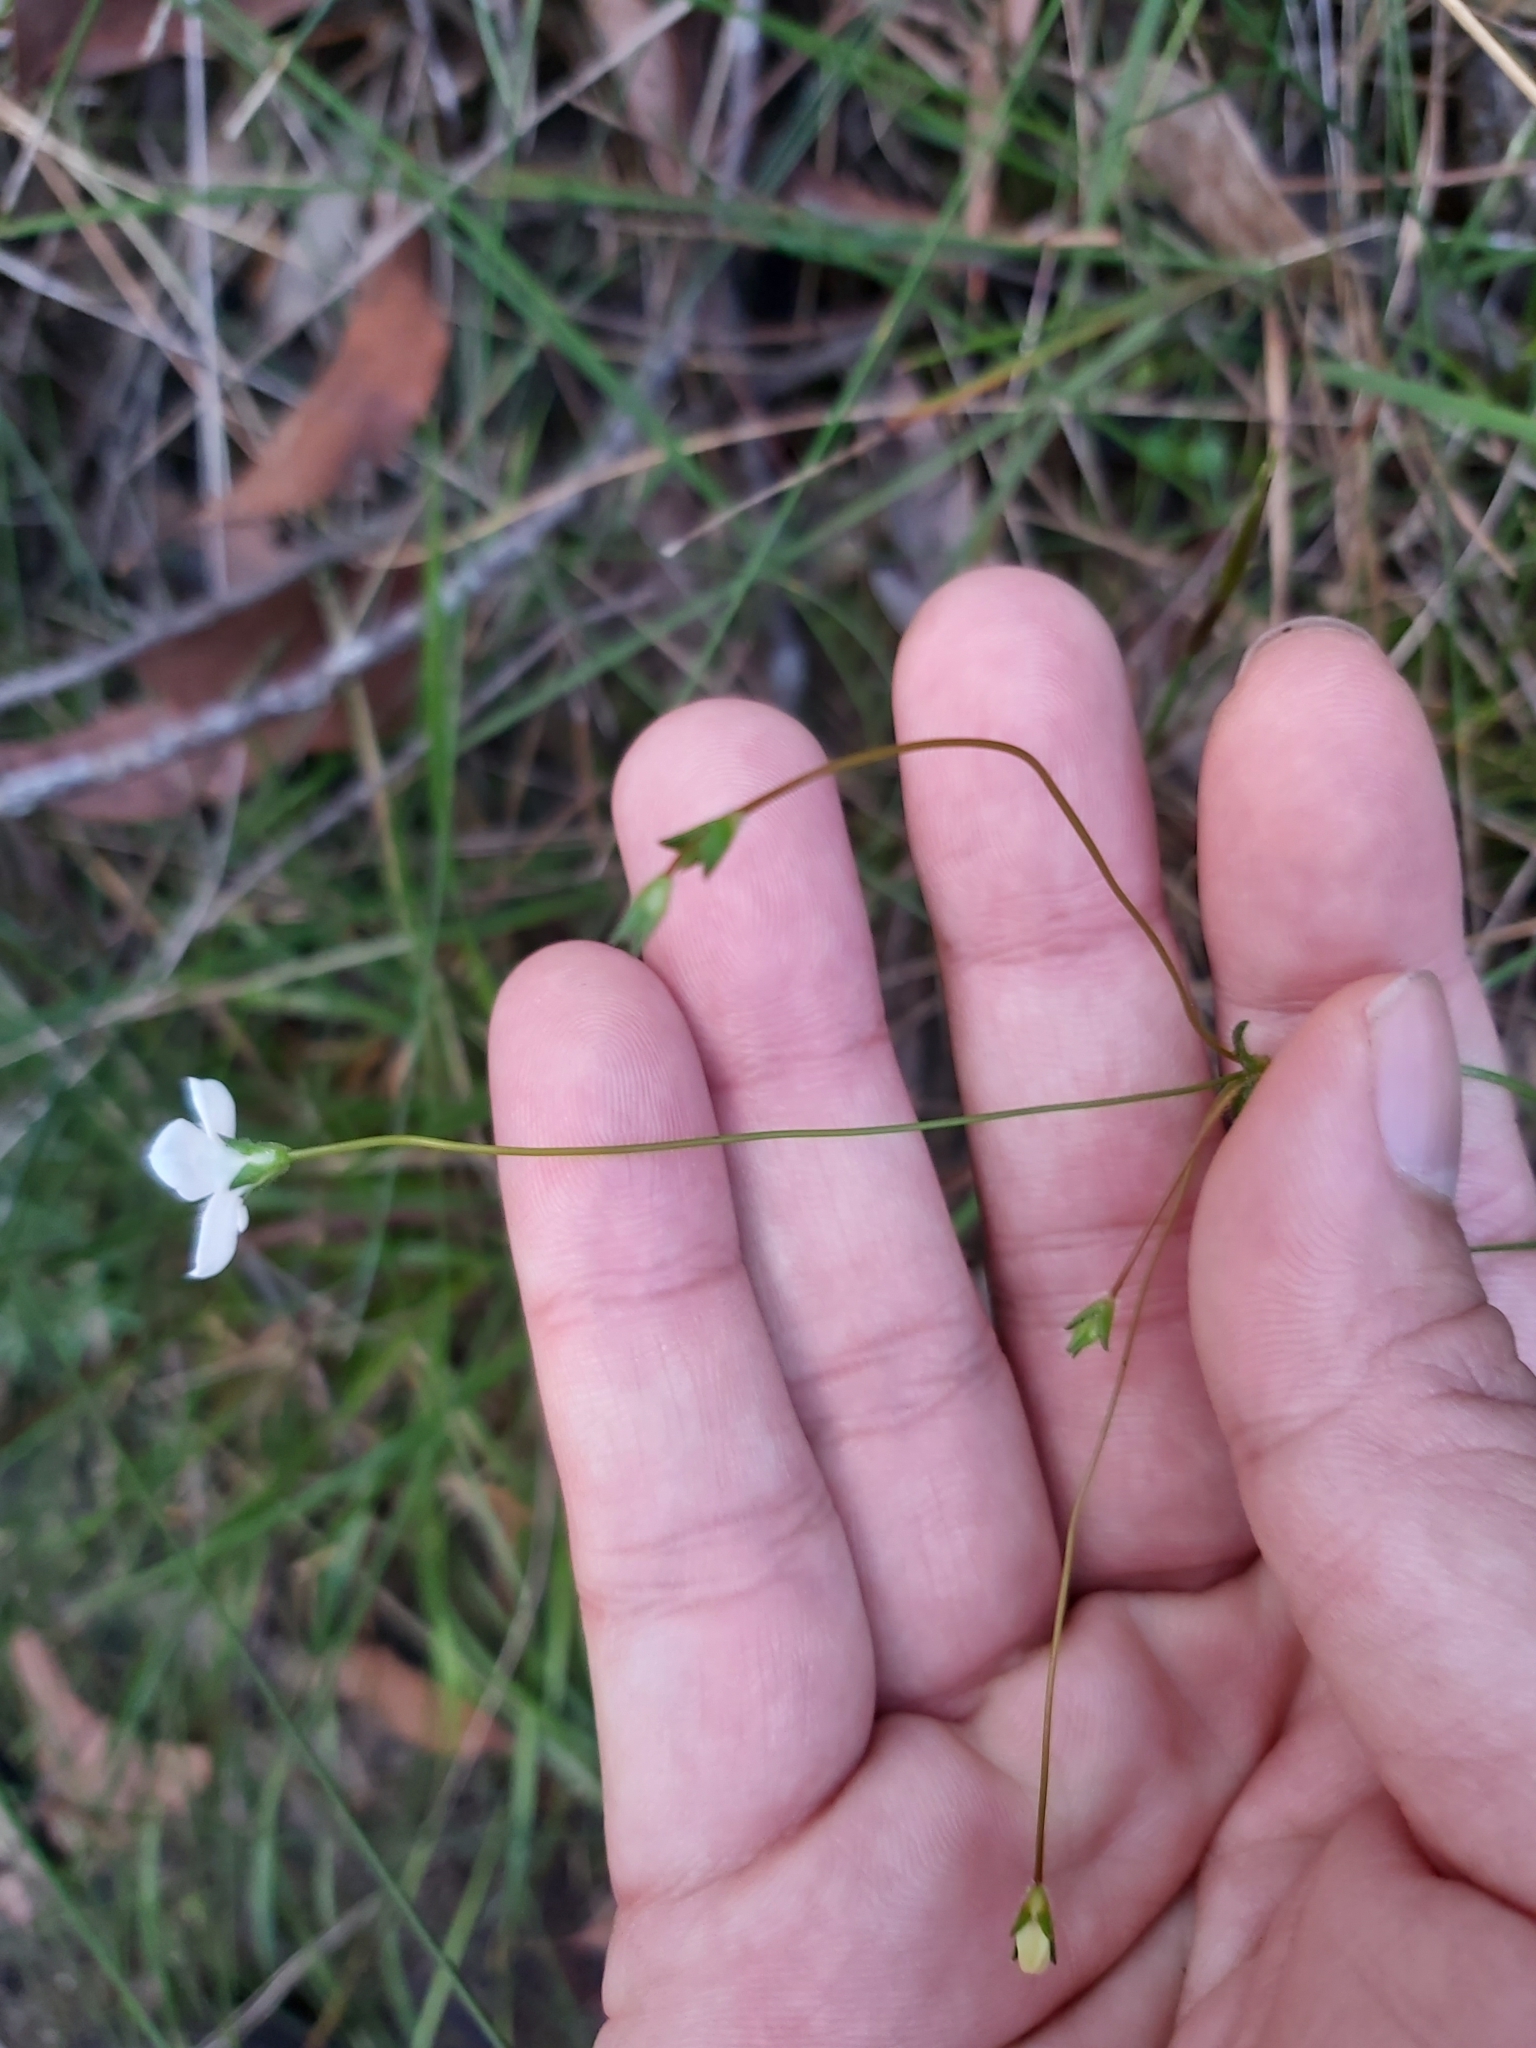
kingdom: Plantae
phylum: Tracheophyta
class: Magnoliopsida
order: Gentianales
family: Loganiaceae
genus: Mitrasacme
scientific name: Mitrasacme polymorpha
